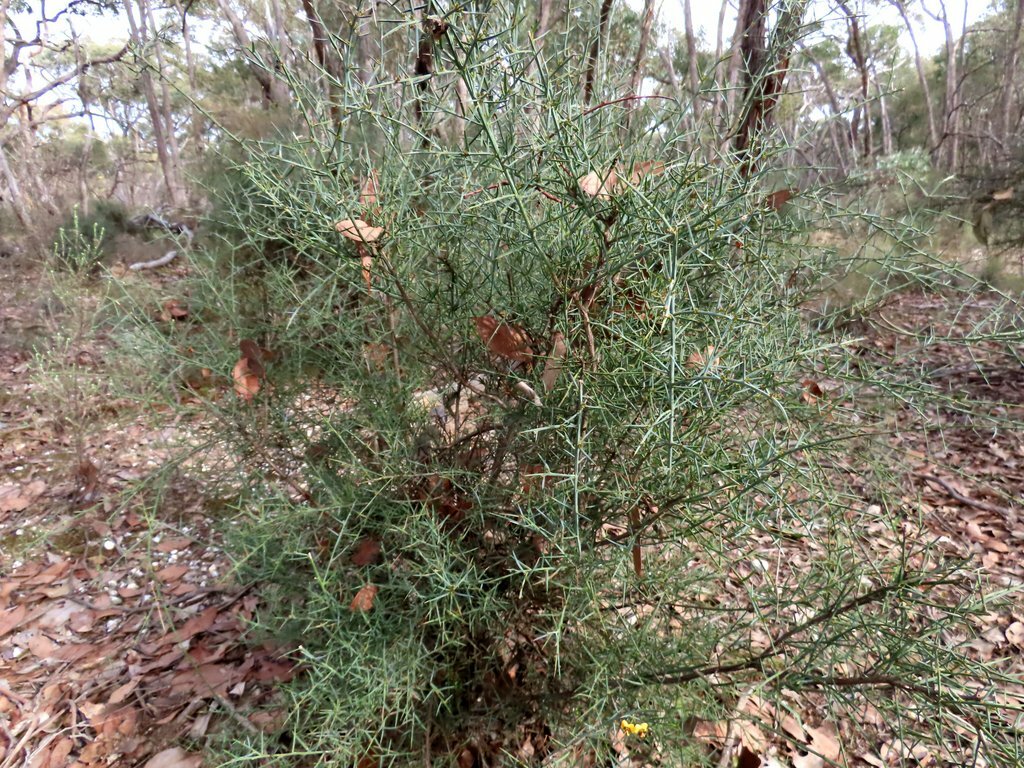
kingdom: Plantae
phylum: Tracheophyta
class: Magnoliopsida
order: Fabales
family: Fabaceae
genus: Daviesia
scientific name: Daviesia ulicifolia
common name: Gorse bitter-pea
